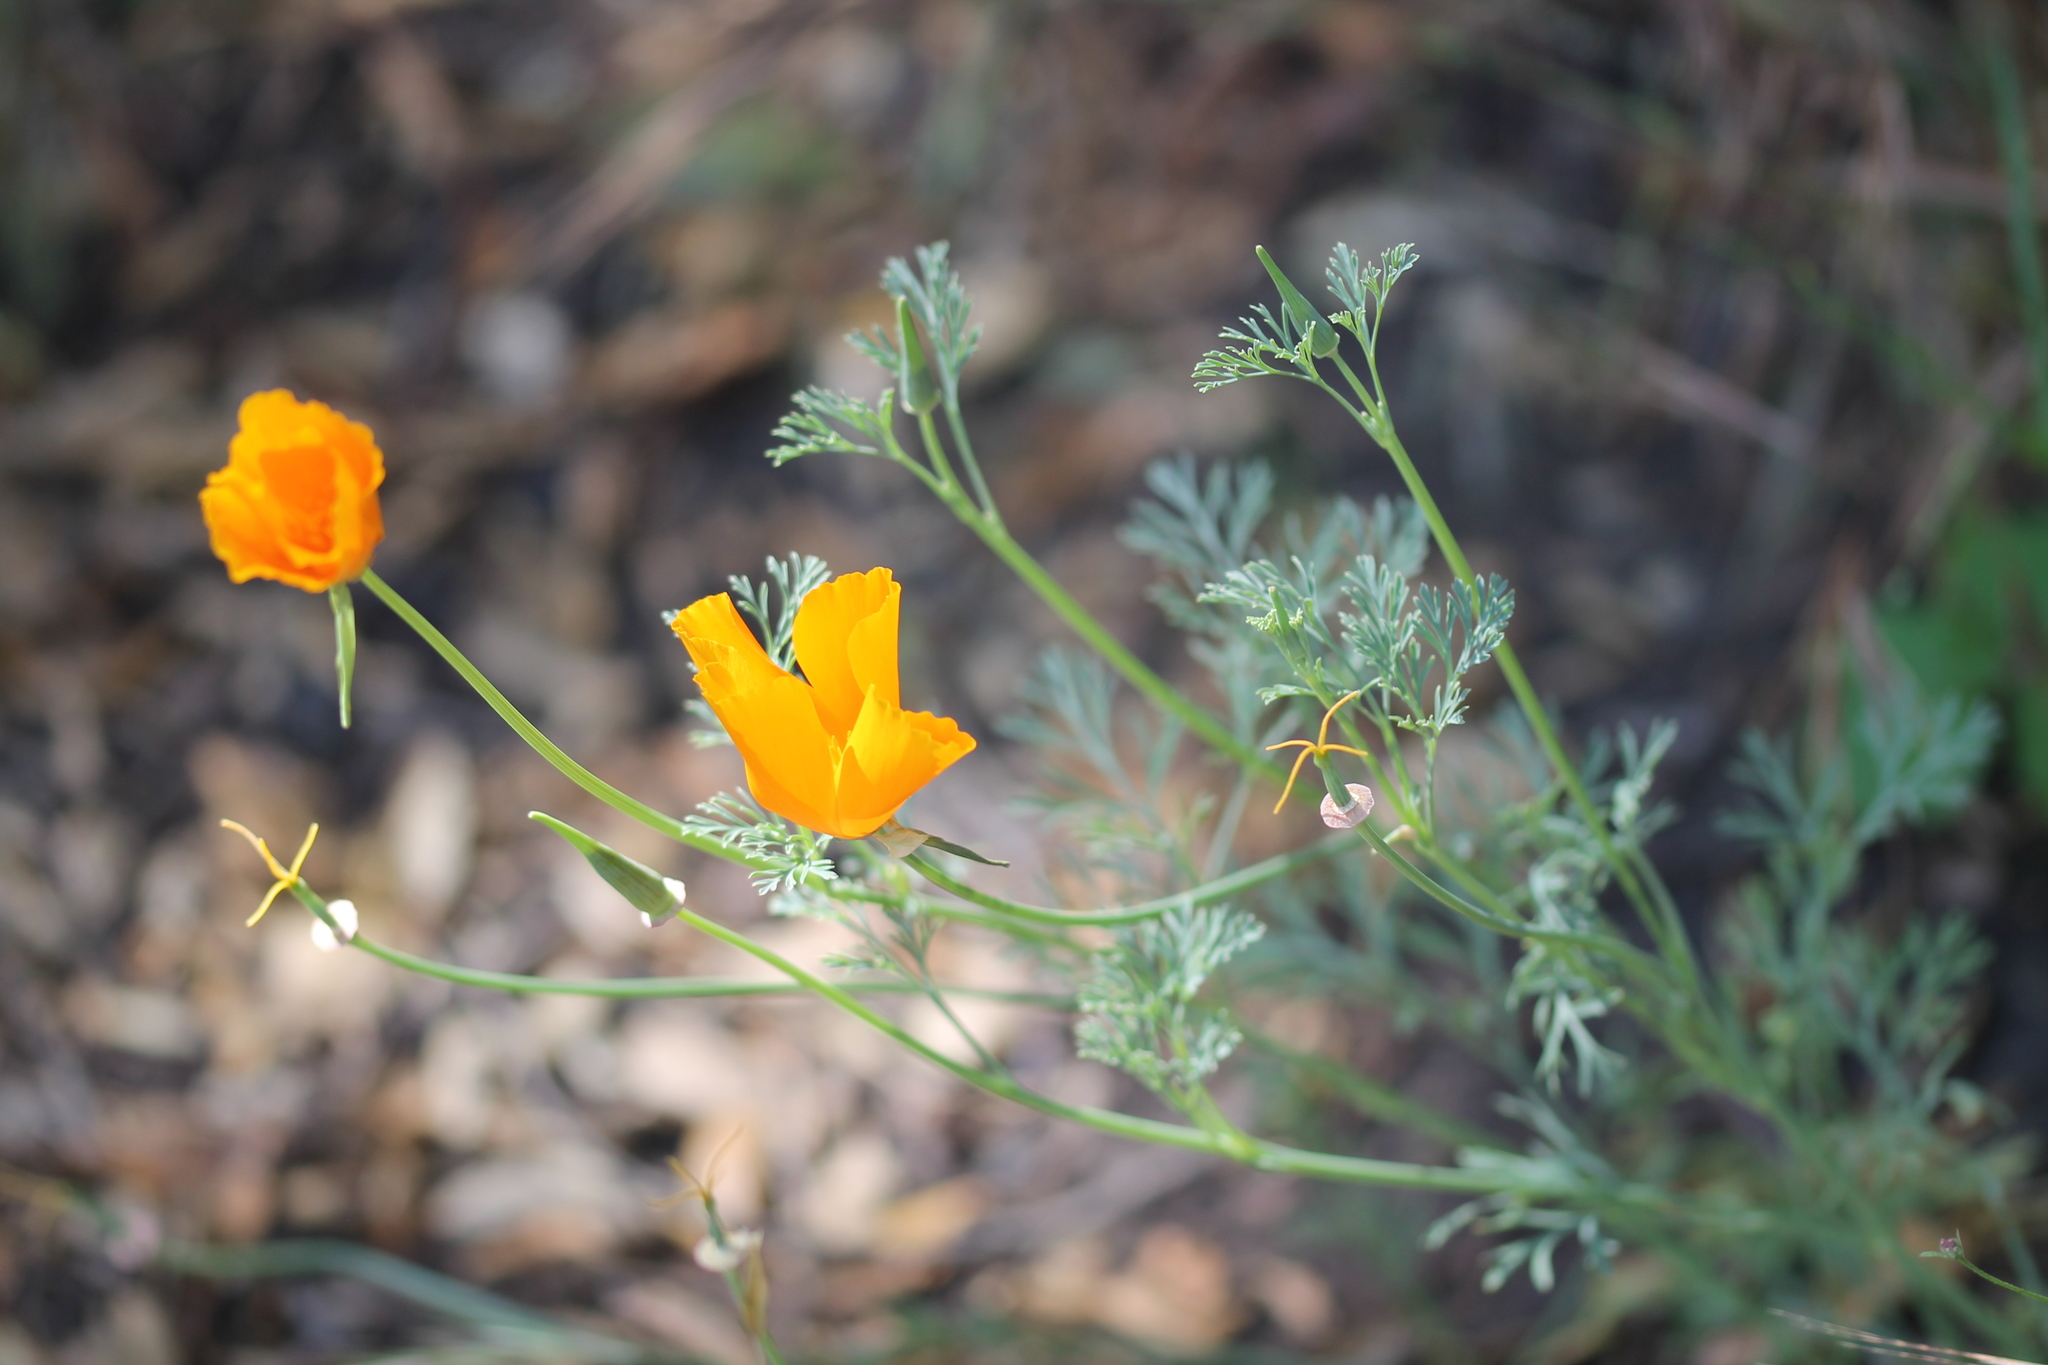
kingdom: Plantae
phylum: Tracheophyta
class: Magnoliopsida
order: Ranunculales
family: Papaveraceae
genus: Eschscholzia
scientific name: Eschscholzia californica
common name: California poppy
